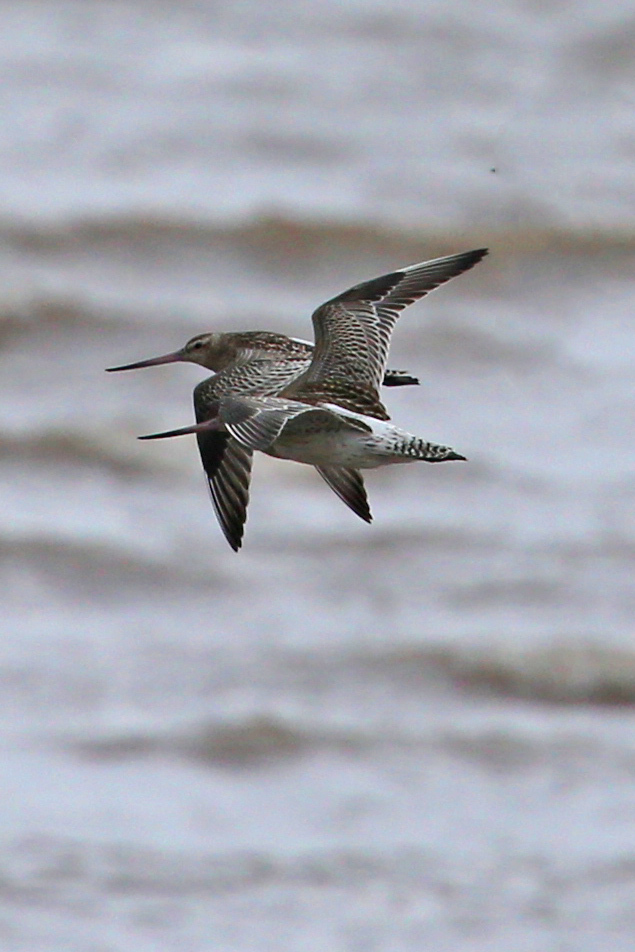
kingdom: Animalia
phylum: Chordata
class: Aves
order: Charadriiformes
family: Scolopacidae
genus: Limosa
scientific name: Limosa lapponica
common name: Bar-tailed godwit
